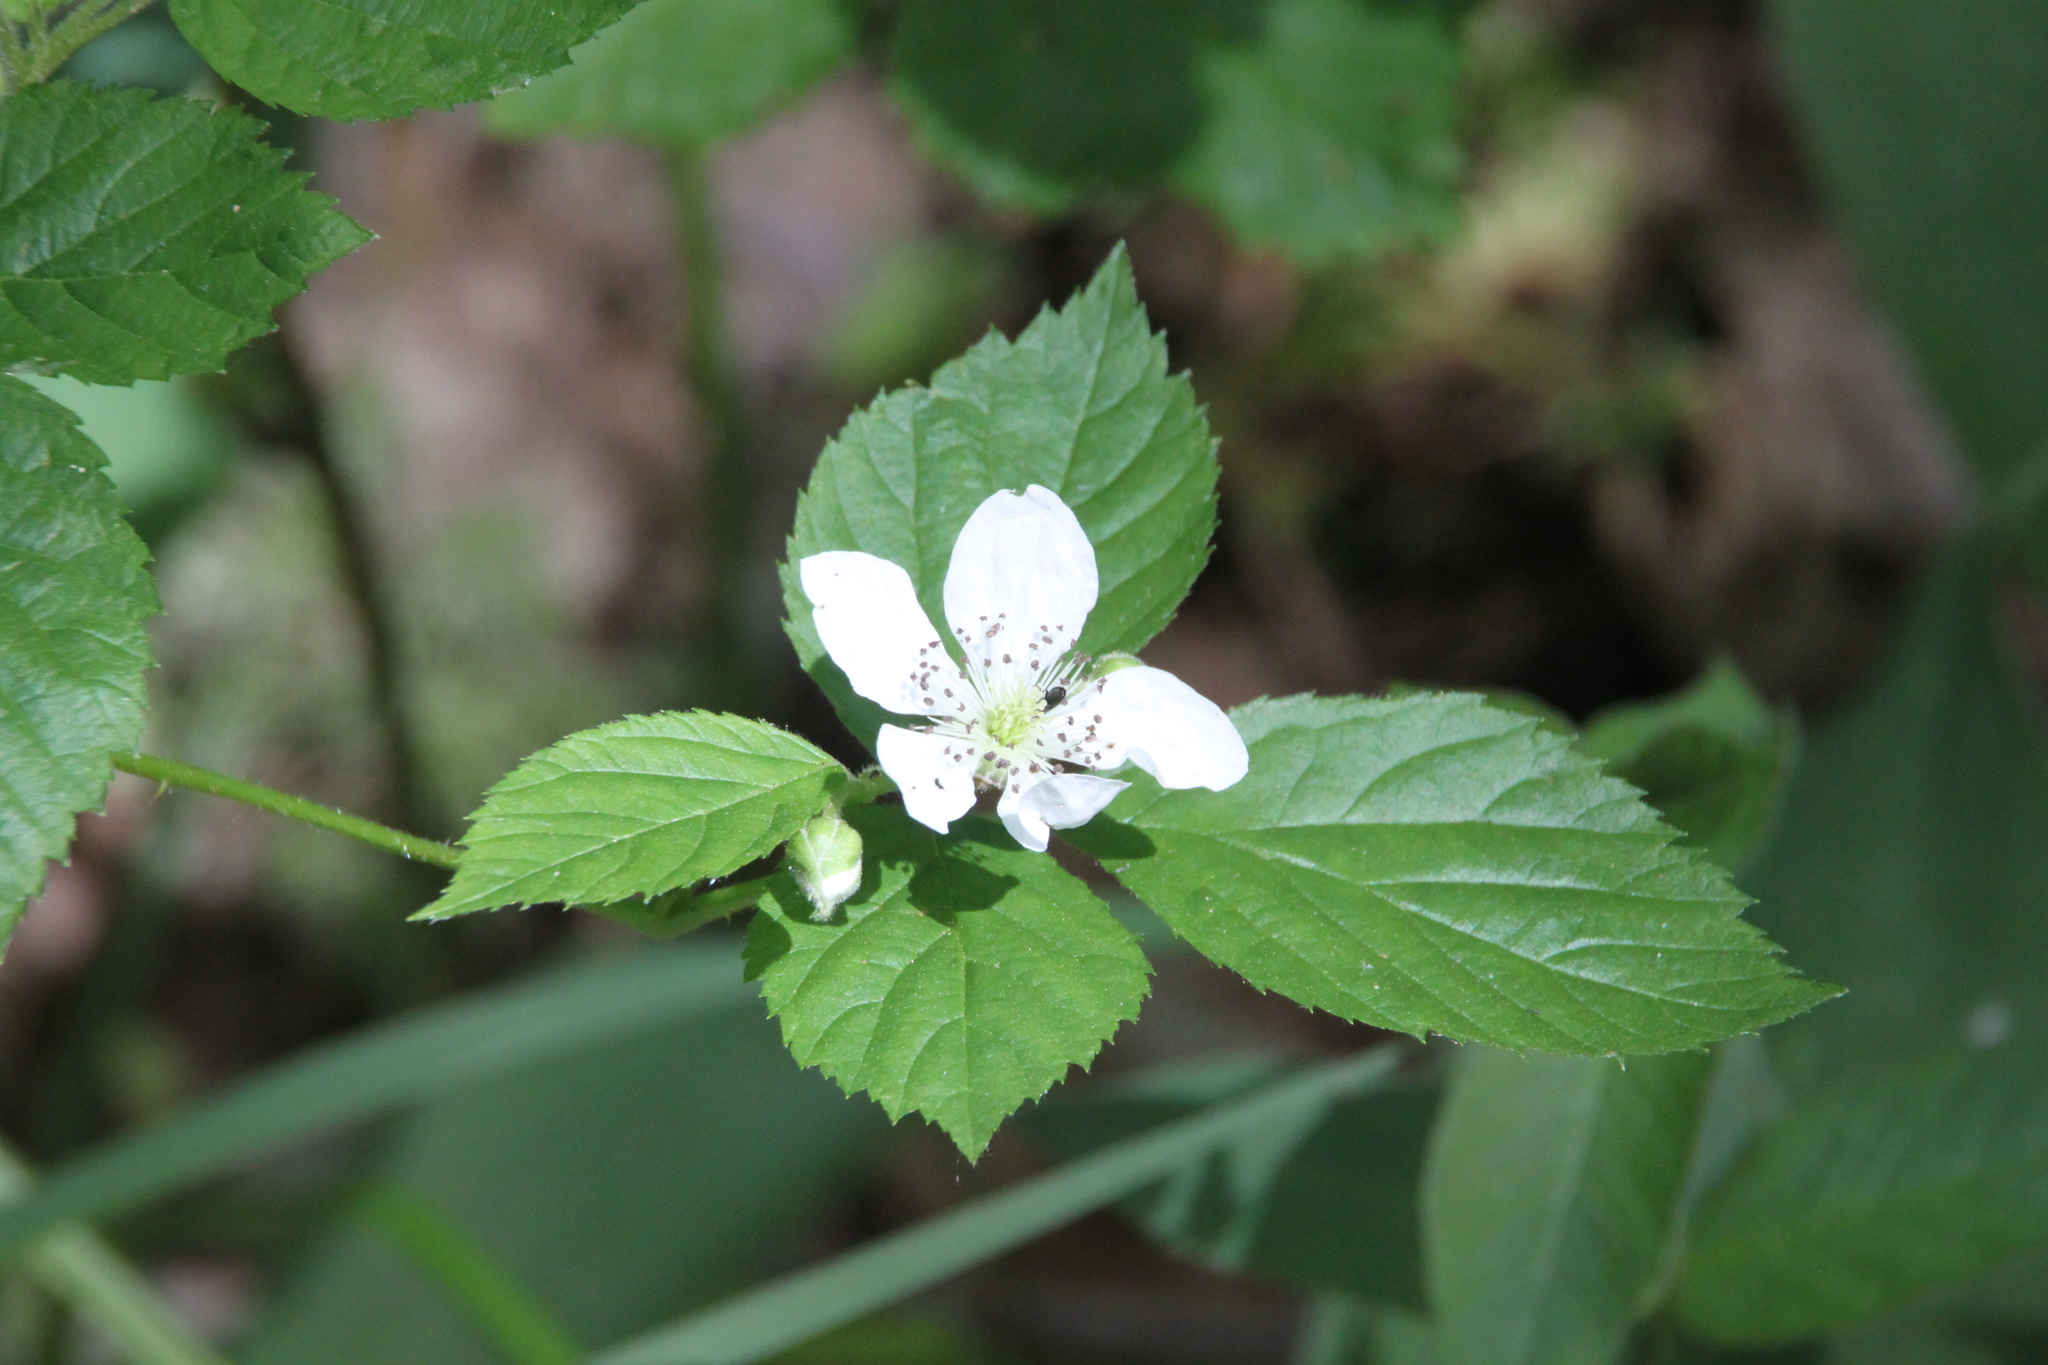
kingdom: Plantae
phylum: Tracheophyta
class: Magnoliopsida
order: Rosales
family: Rosaceae
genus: Rubus
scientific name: Rubus polonicus
